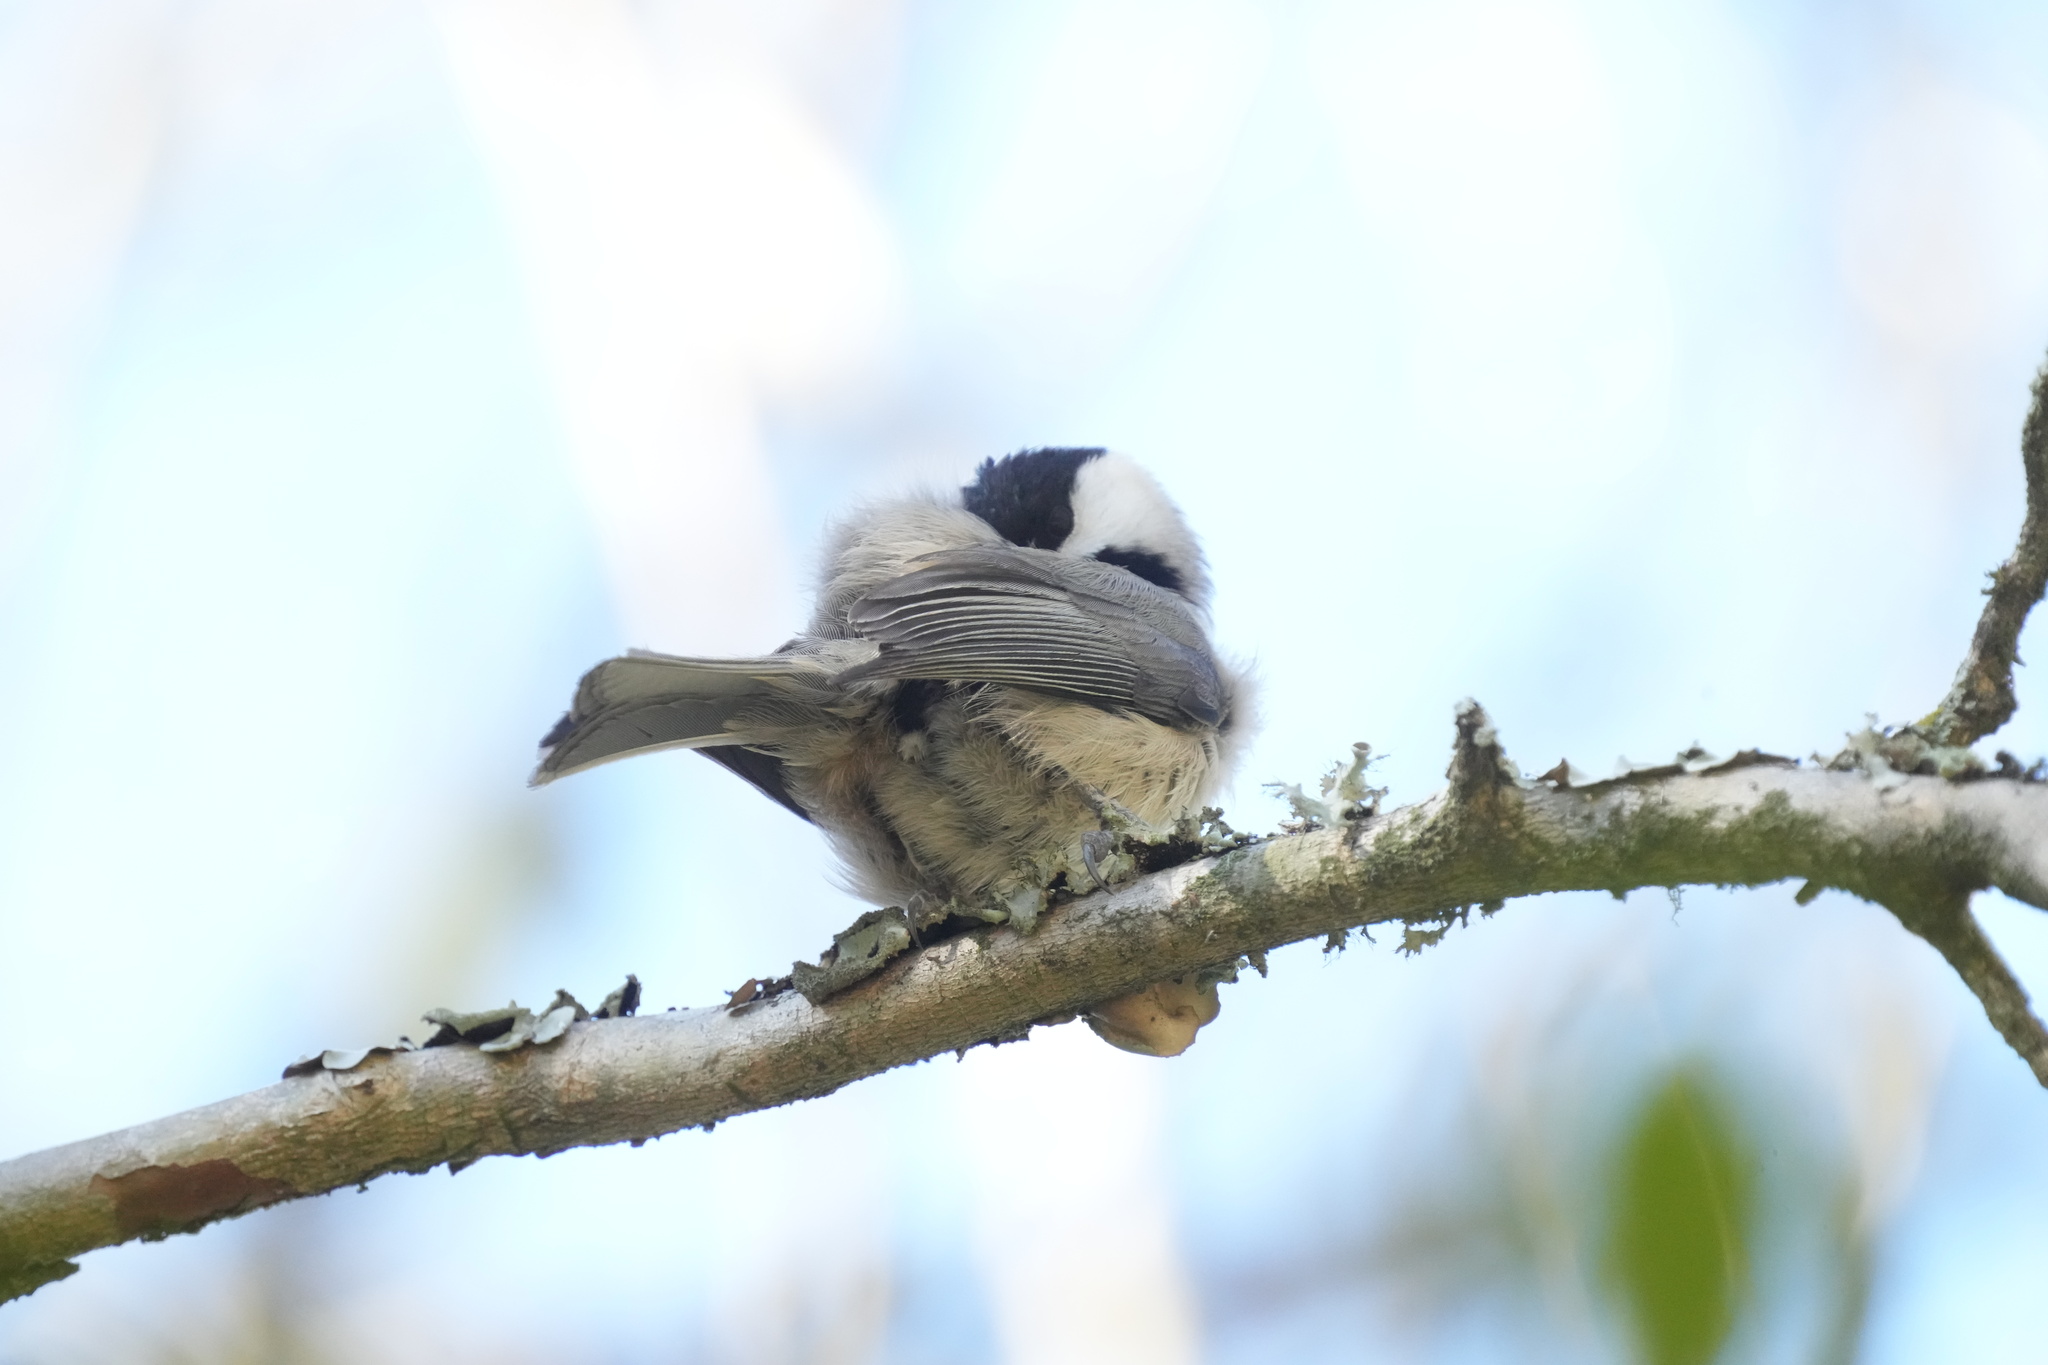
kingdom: Animalia
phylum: Chordata
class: Aves
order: Passeriformes
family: Paridae
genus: Poecile
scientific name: Poecile carolinensis
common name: Carolina chickadee
